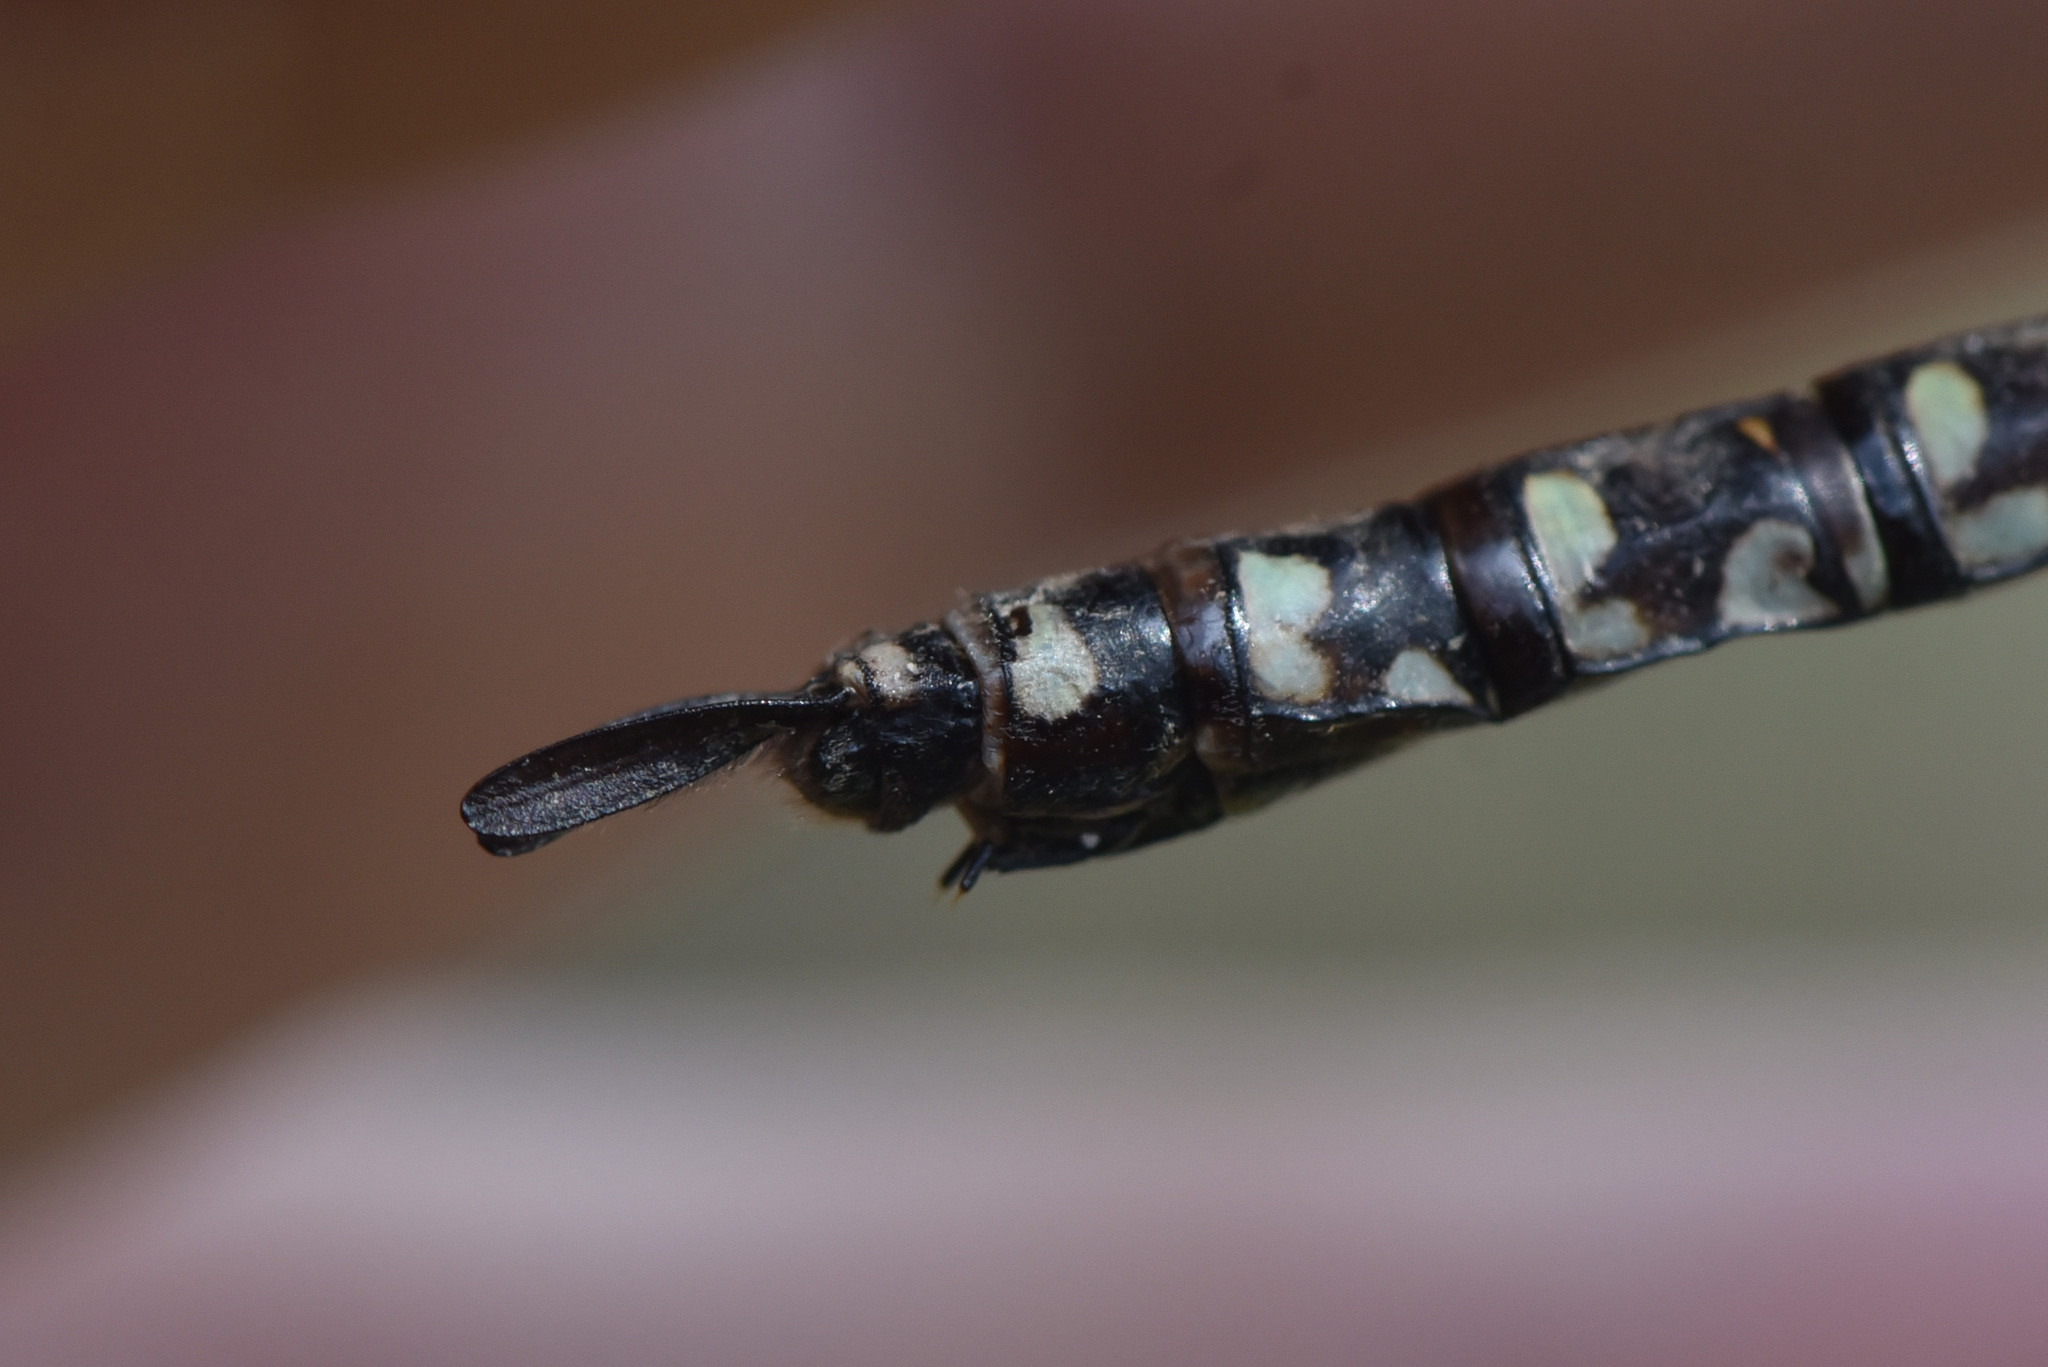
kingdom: Animalia
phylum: Arthropoda
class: Insecta
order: Odonata
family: Aeshnidae
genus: Aeshna
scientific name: Aeshna eremita
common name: Lake darner
